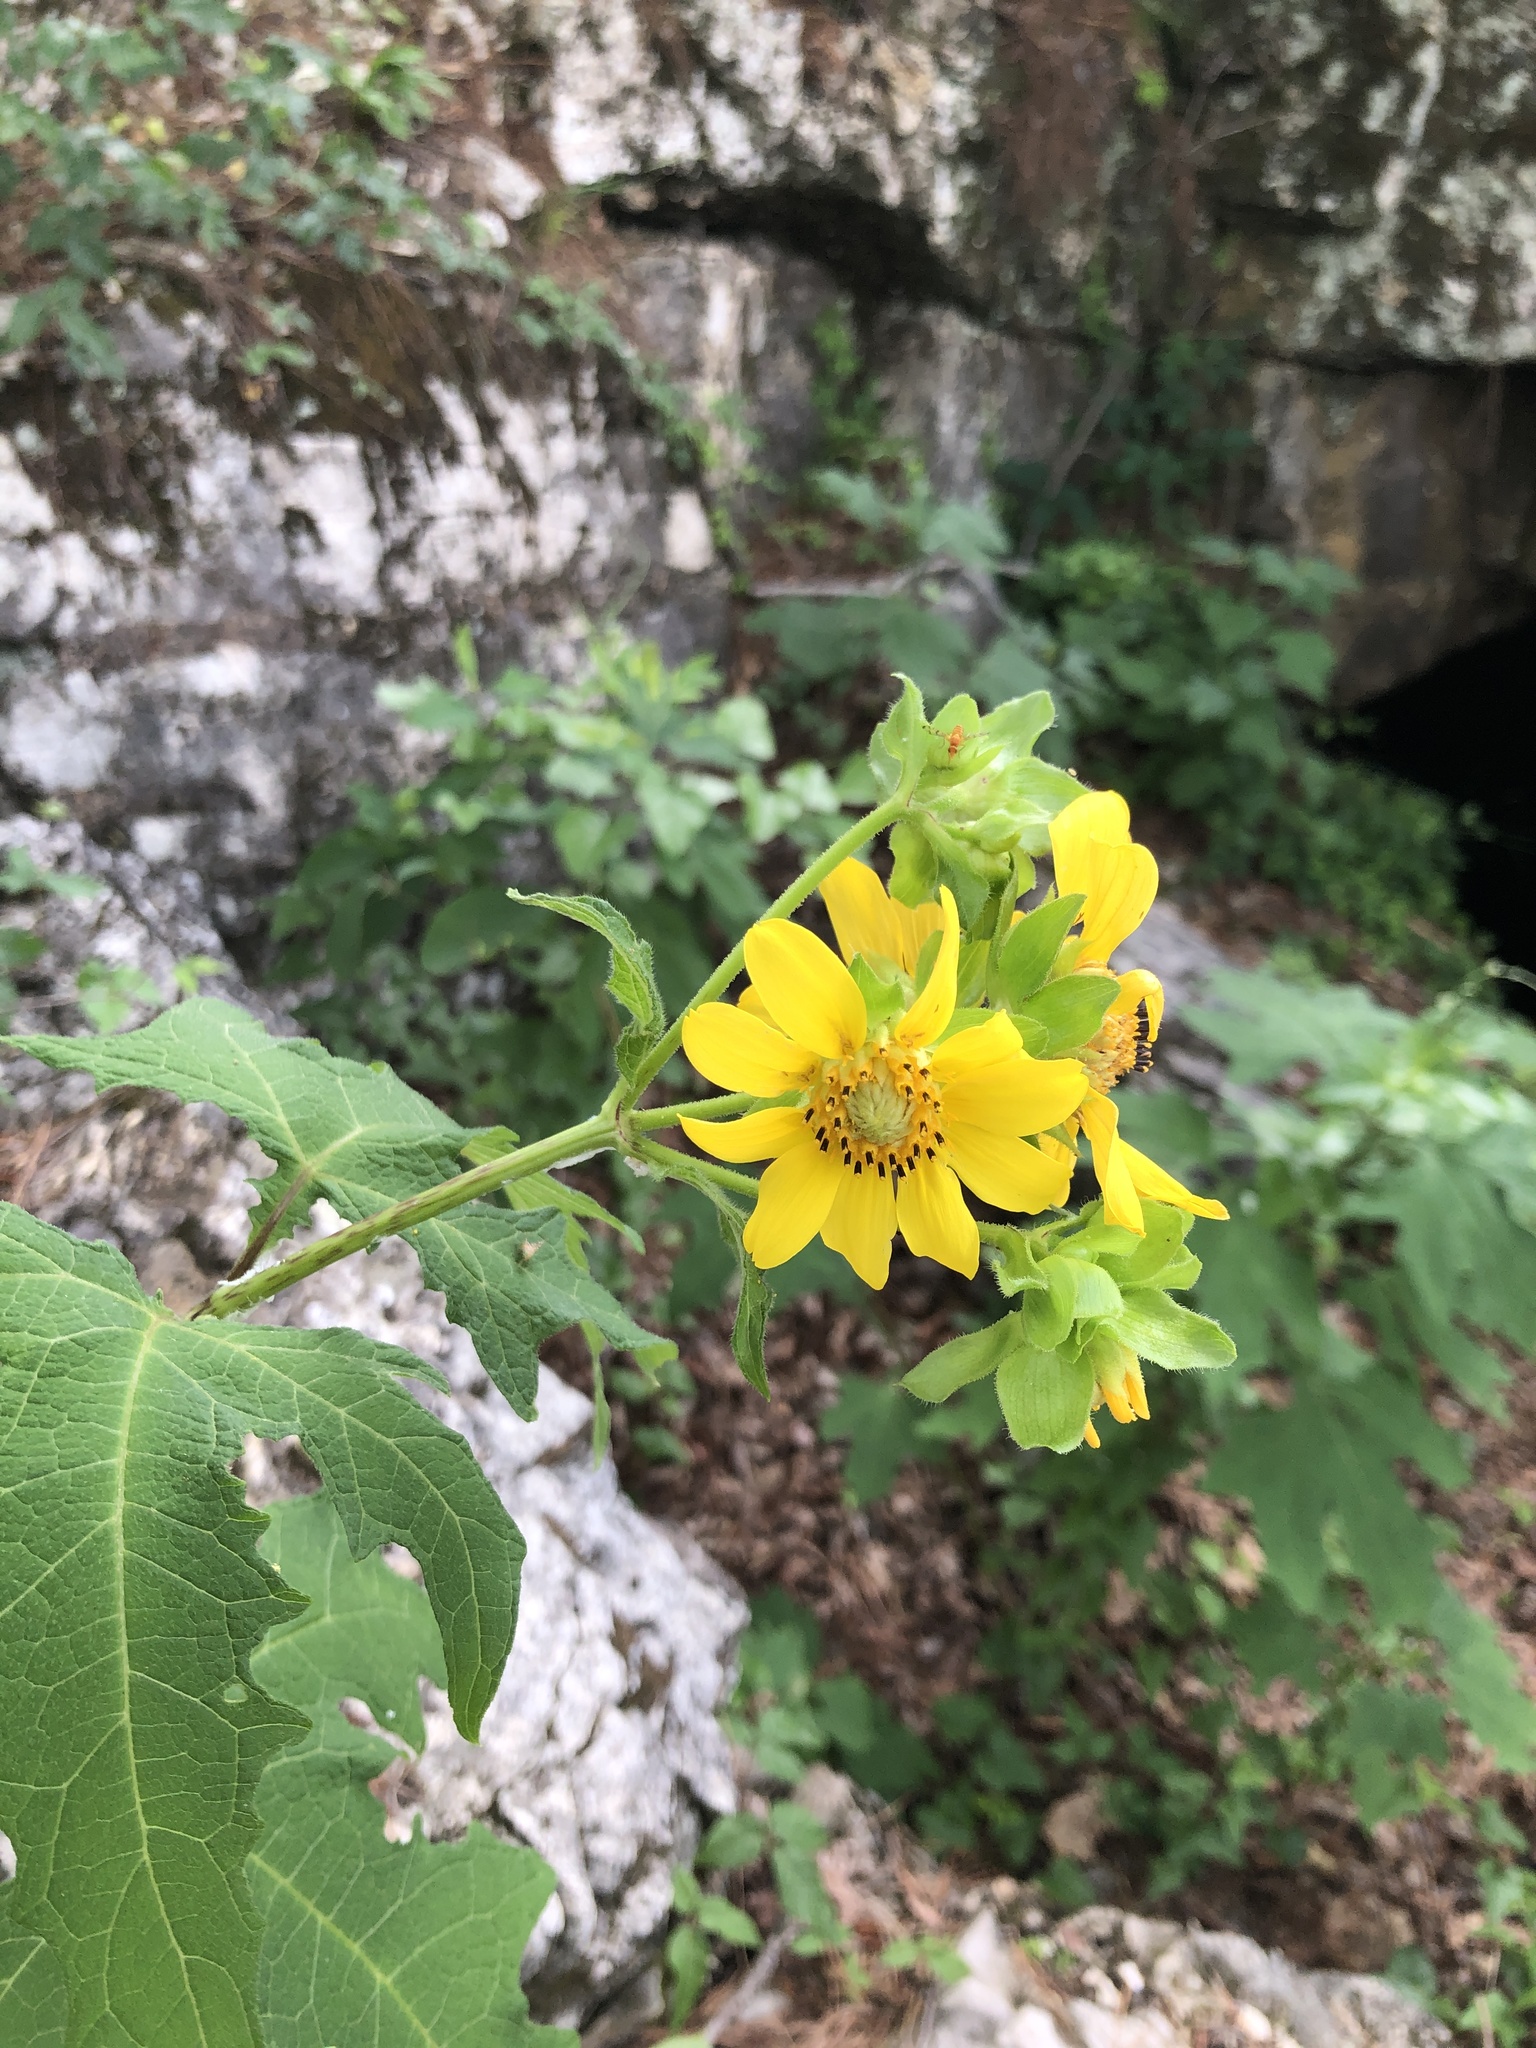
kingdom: Plantae
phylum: Tracheophyta
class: Magnoliopsida
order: Asterales
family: Asteraceae
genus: Smallanthus
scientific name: Smallanthus uvedalia
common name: Bear's-foot
